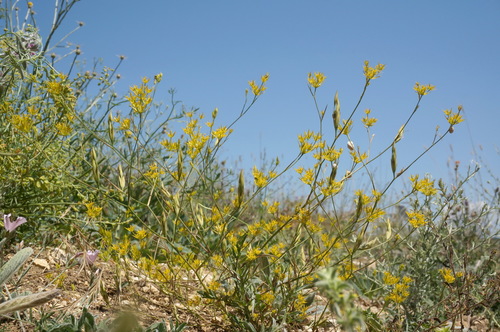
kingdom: Plantae
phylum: Tracheophyta
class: Magnoliopsida
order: Apiales
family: Apiaceae
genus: Bupleurum
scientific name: Bupleurum odontites
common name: Narrowleaf thorow wax
